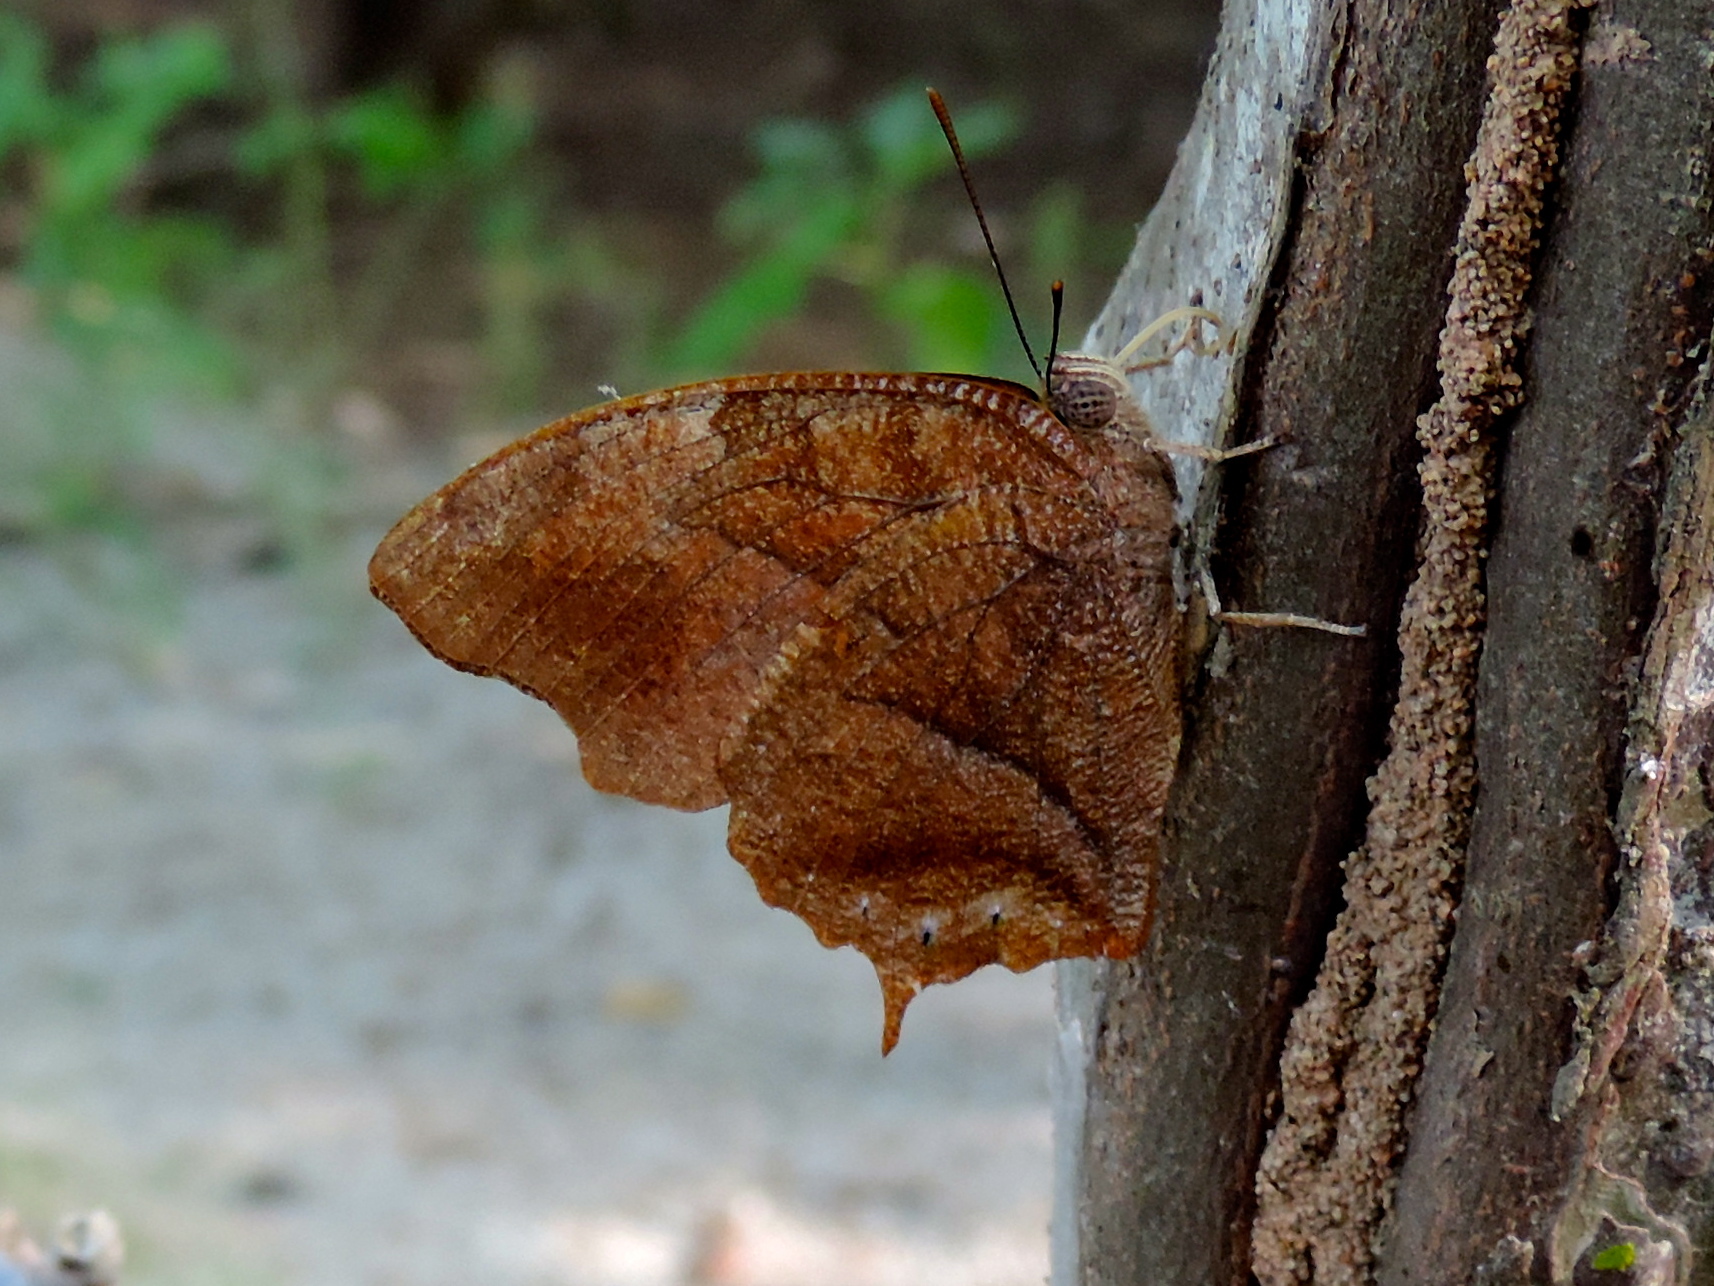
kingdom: Animalia
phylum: Arthropoda
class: Insecta
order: Lepidoptera
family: Nymphalidae
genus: Fountainea
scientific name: Fountainea
